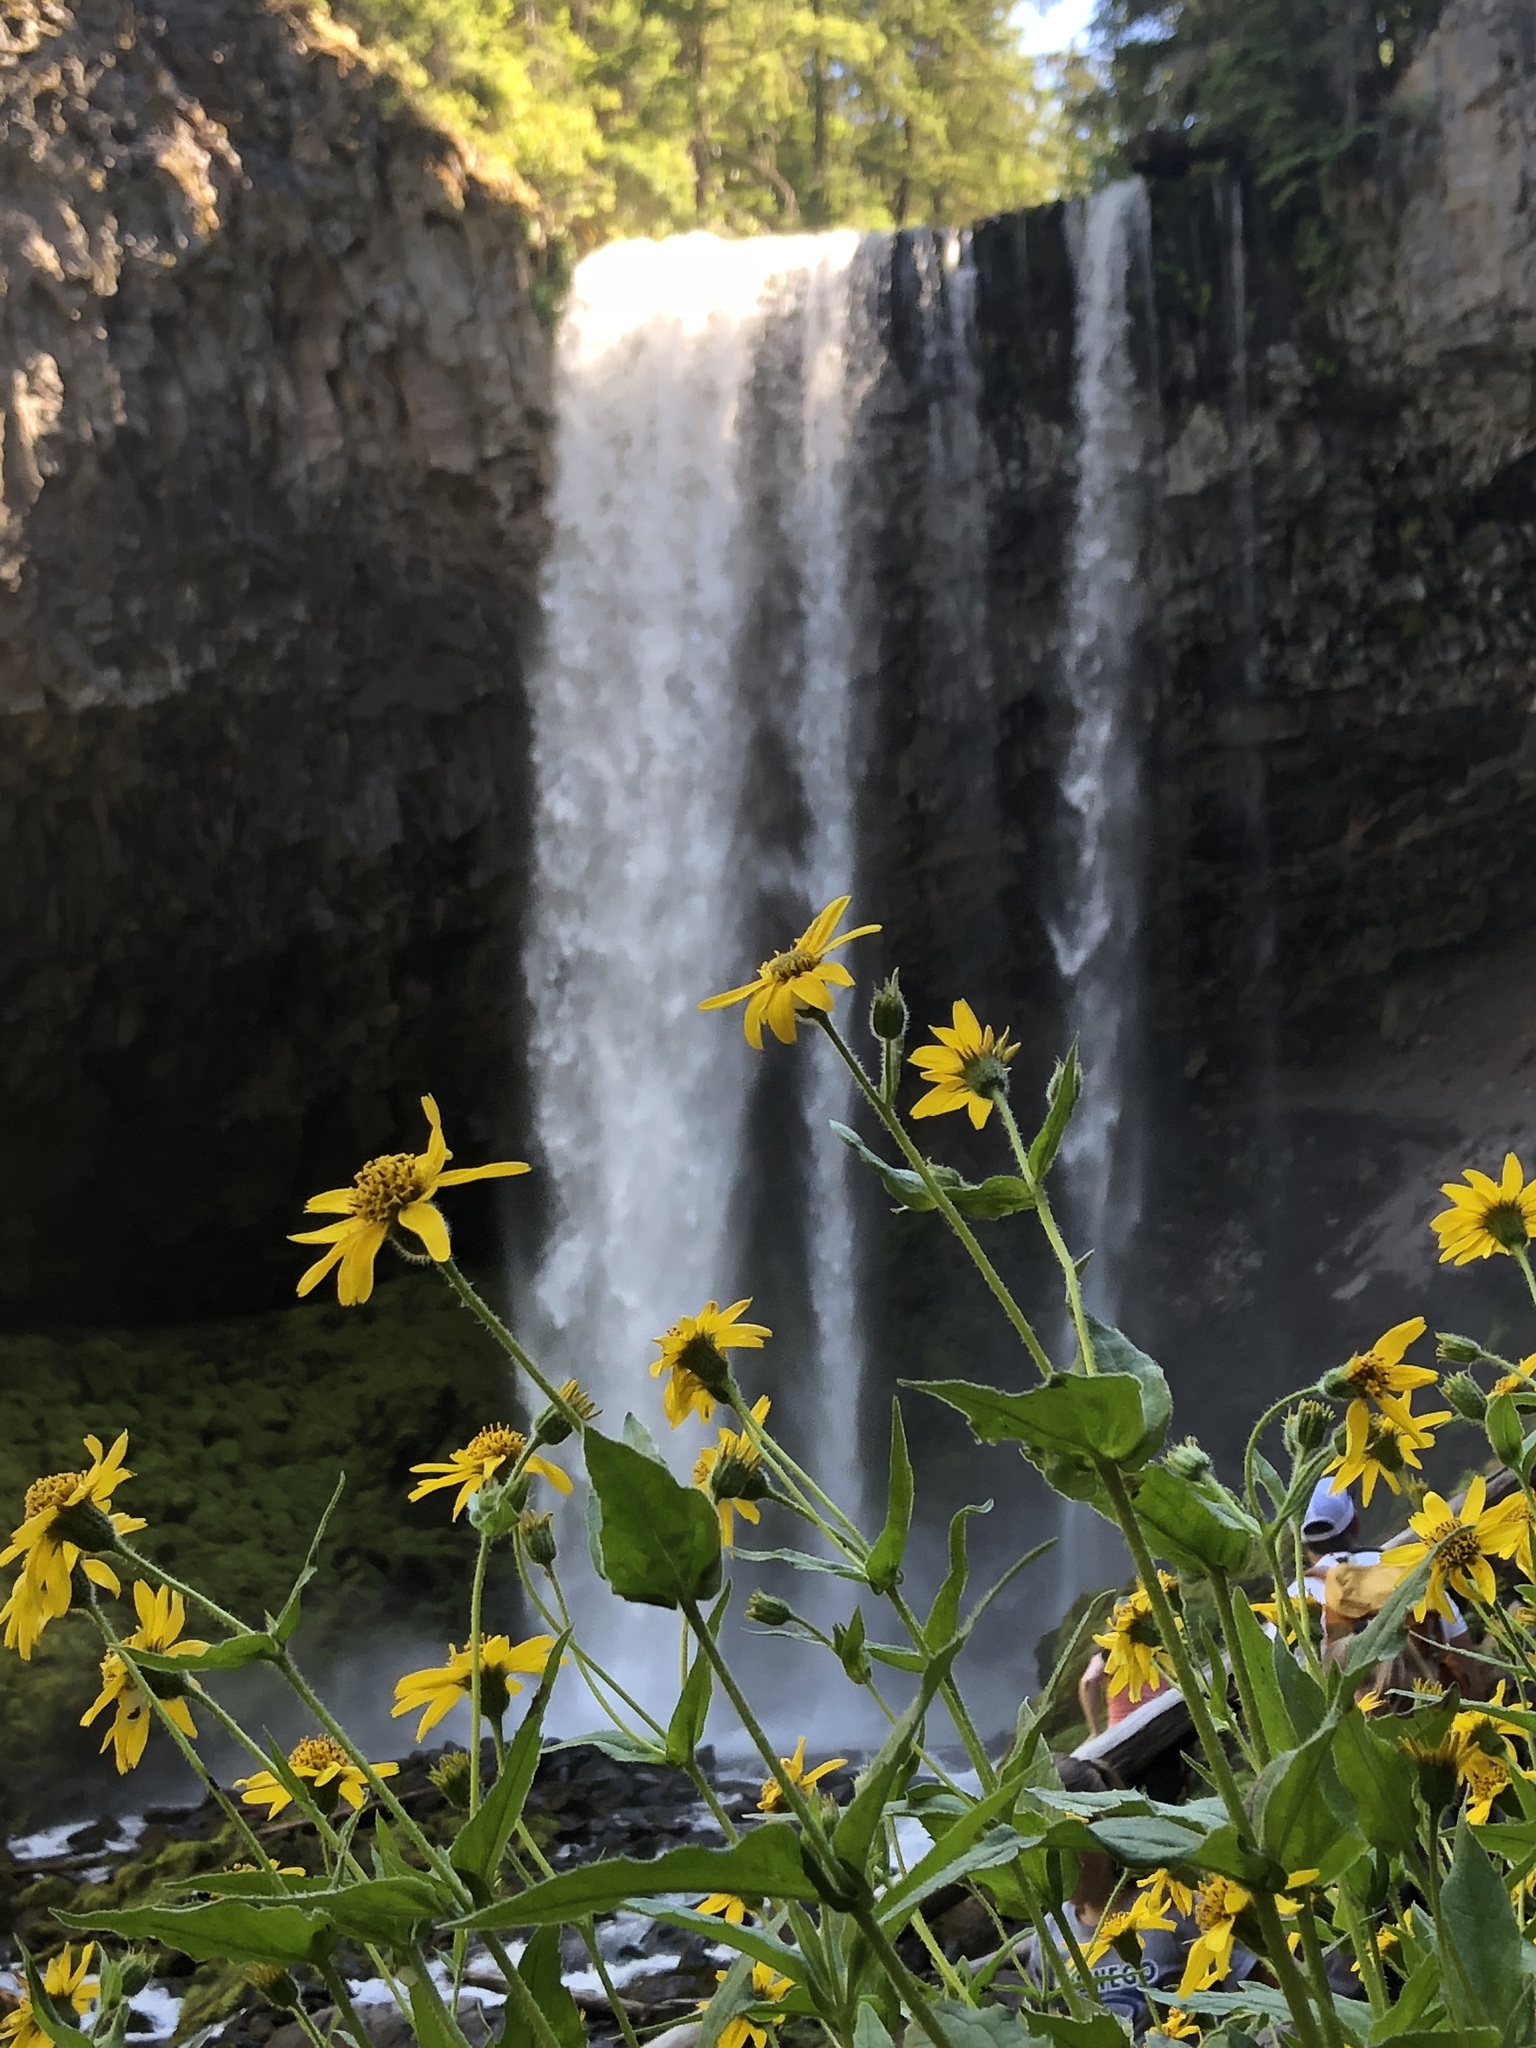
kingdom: Plantae
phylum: Tracheophyta
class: Magnoliopsida
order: Asterales
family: Asteraceae
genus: Arnica
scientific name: Arnica lanceolata
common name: Lance-leaved arnica
